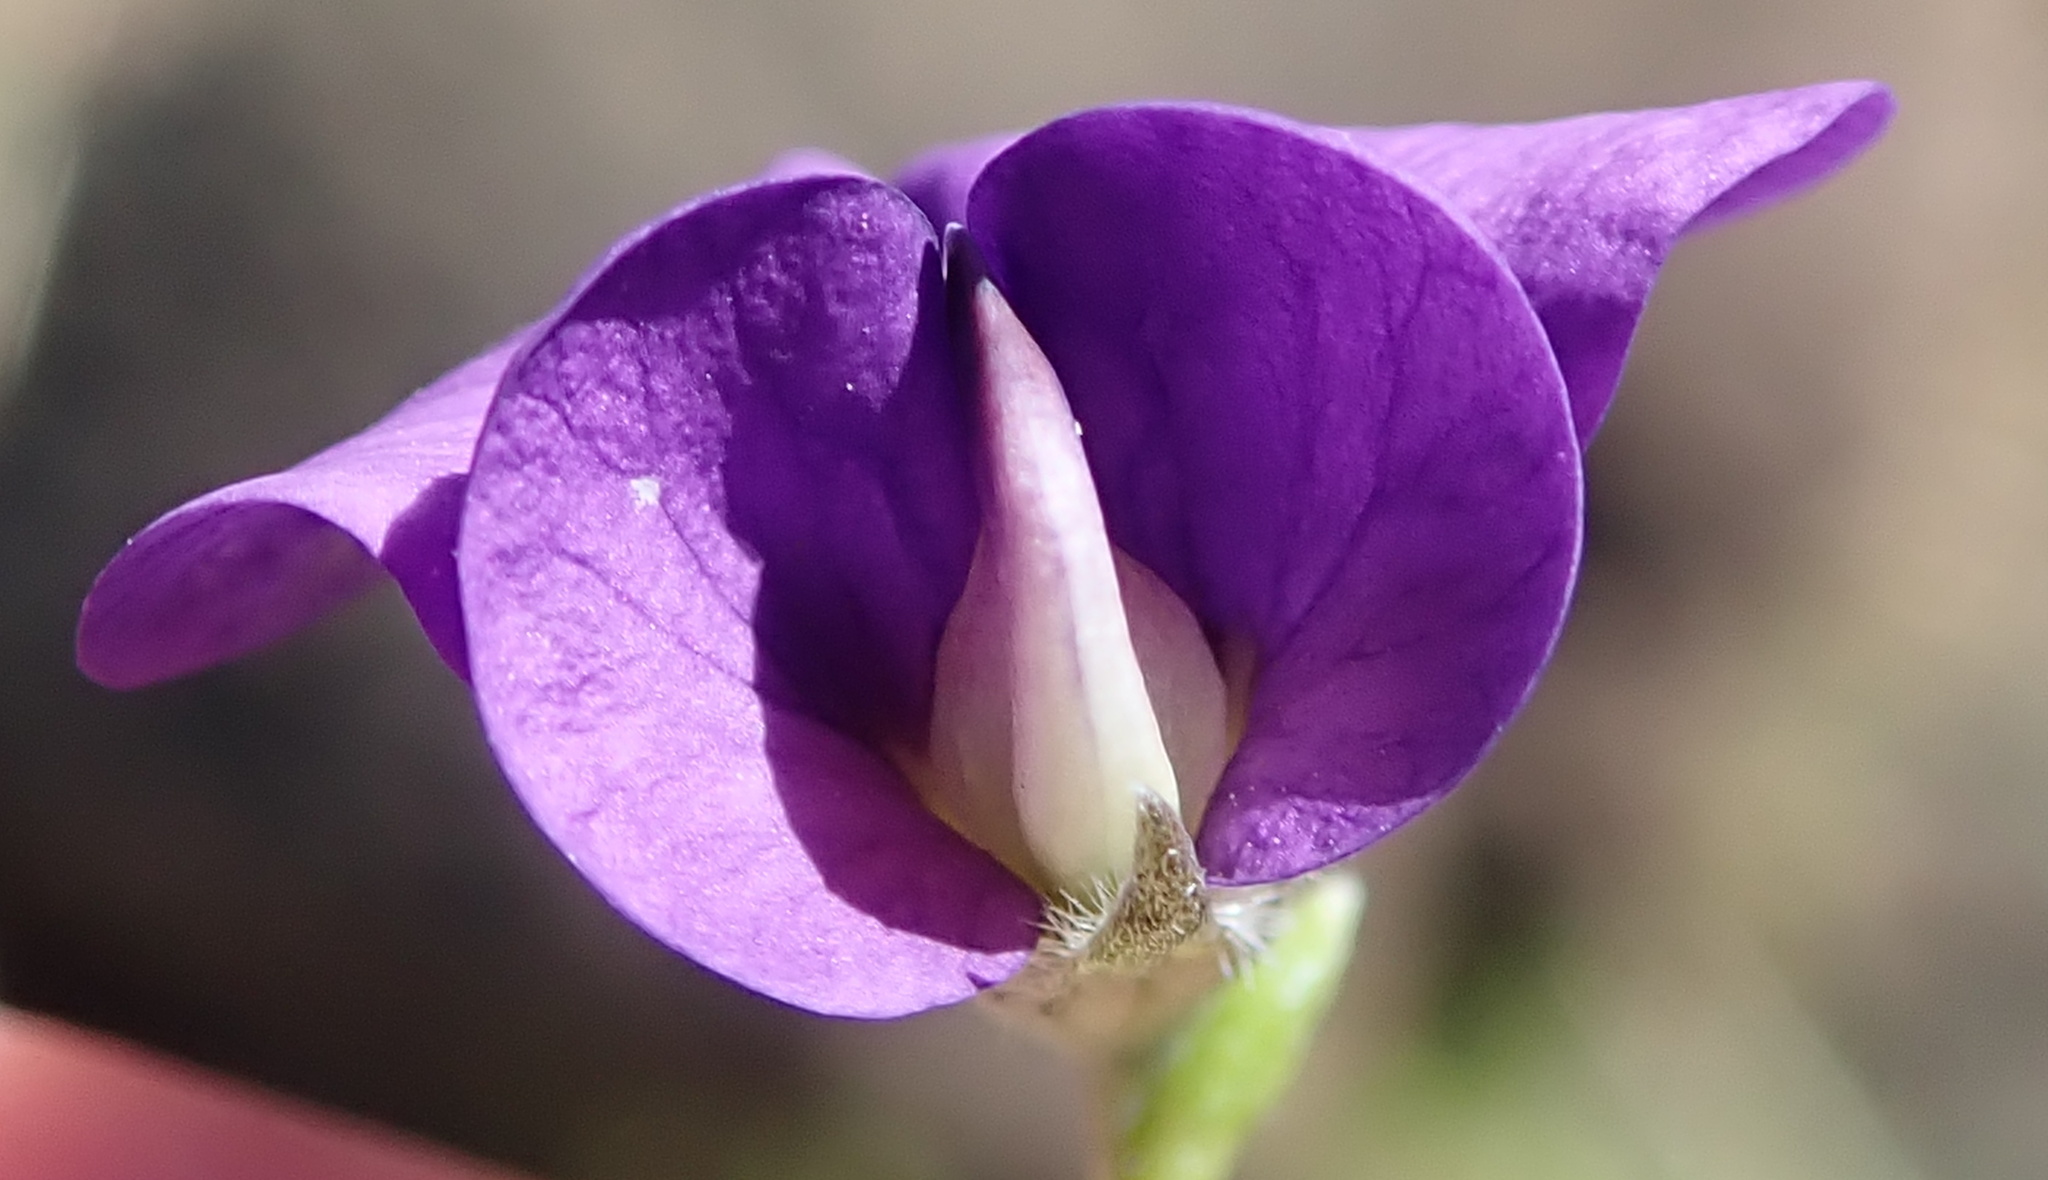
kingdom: Plantae
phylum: Tracheophyta
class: Magnoliopsida
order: Fabales
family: Fabaceae
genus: Lotononis
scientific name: Lotononis galpinii
